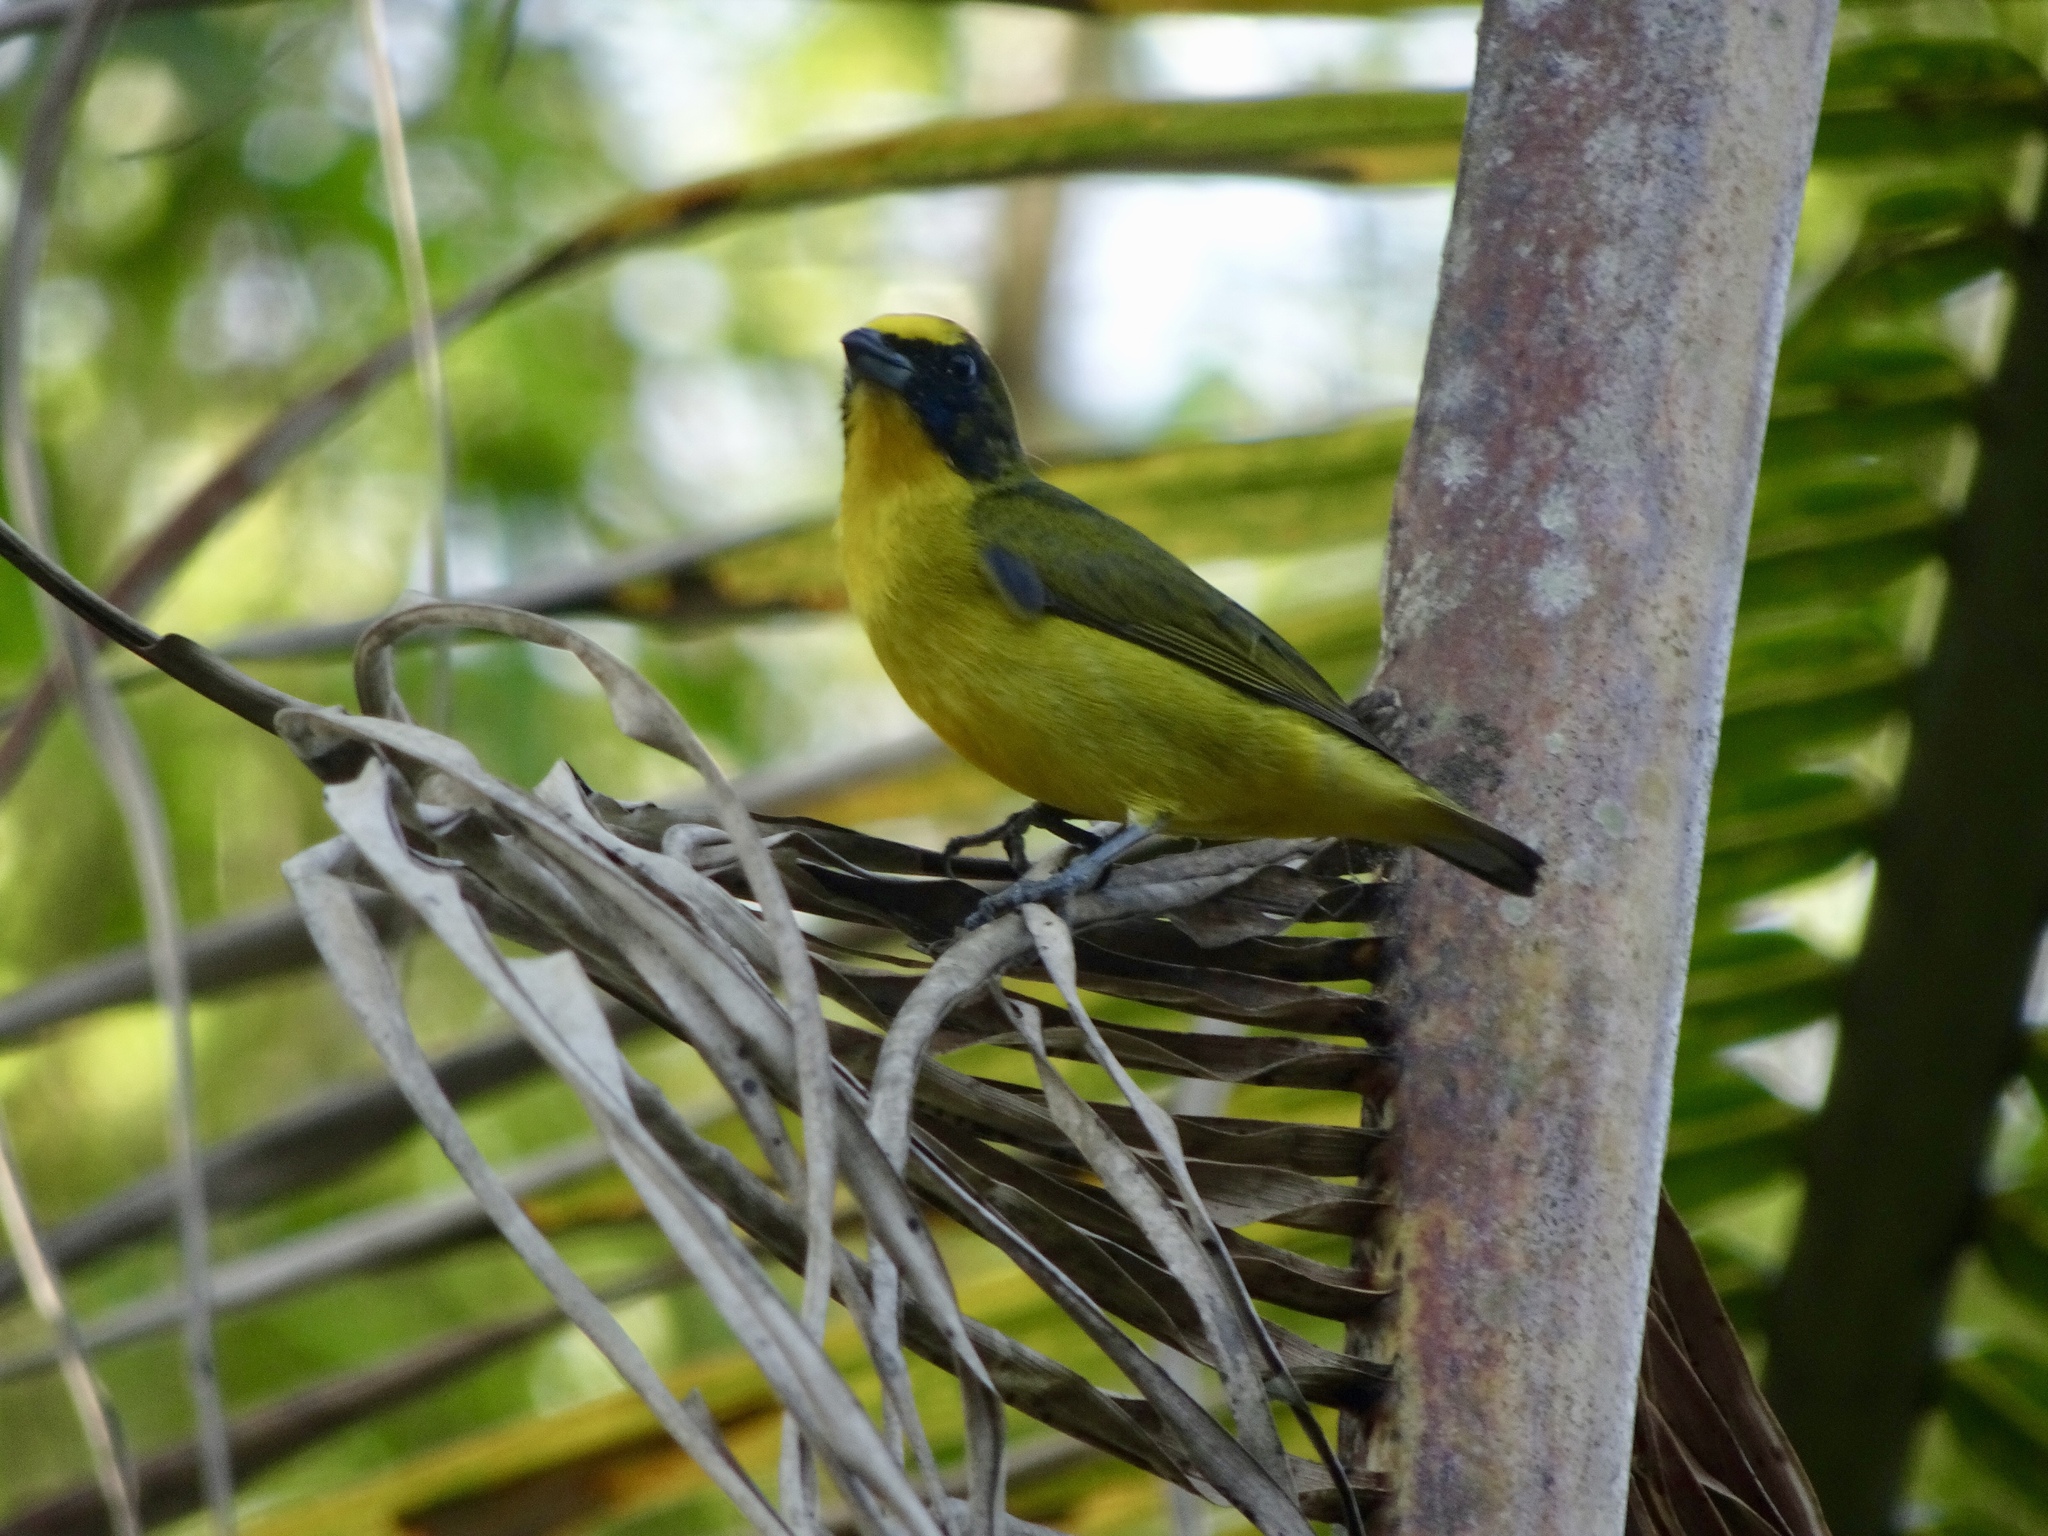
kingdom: Animalia
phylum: Chordata
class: Aves
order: Passeriformes
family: Fringillidae
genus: Euphonia
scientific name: Euphonia laniirostris
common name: Thick-billed euphonia
